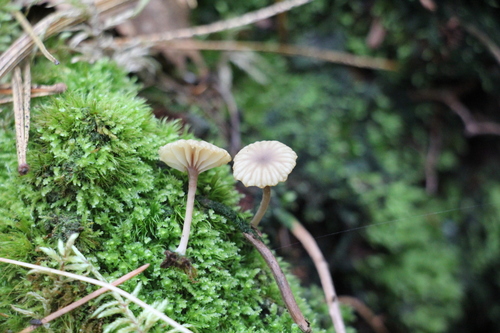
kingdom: Fungi
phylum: Basidiomycota
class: Agaricomycetes
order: Agaricales
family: Hygrophoraceae
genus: Lichenomphalia
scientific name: Lichenomphalia umbellifera
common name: Heath navel
